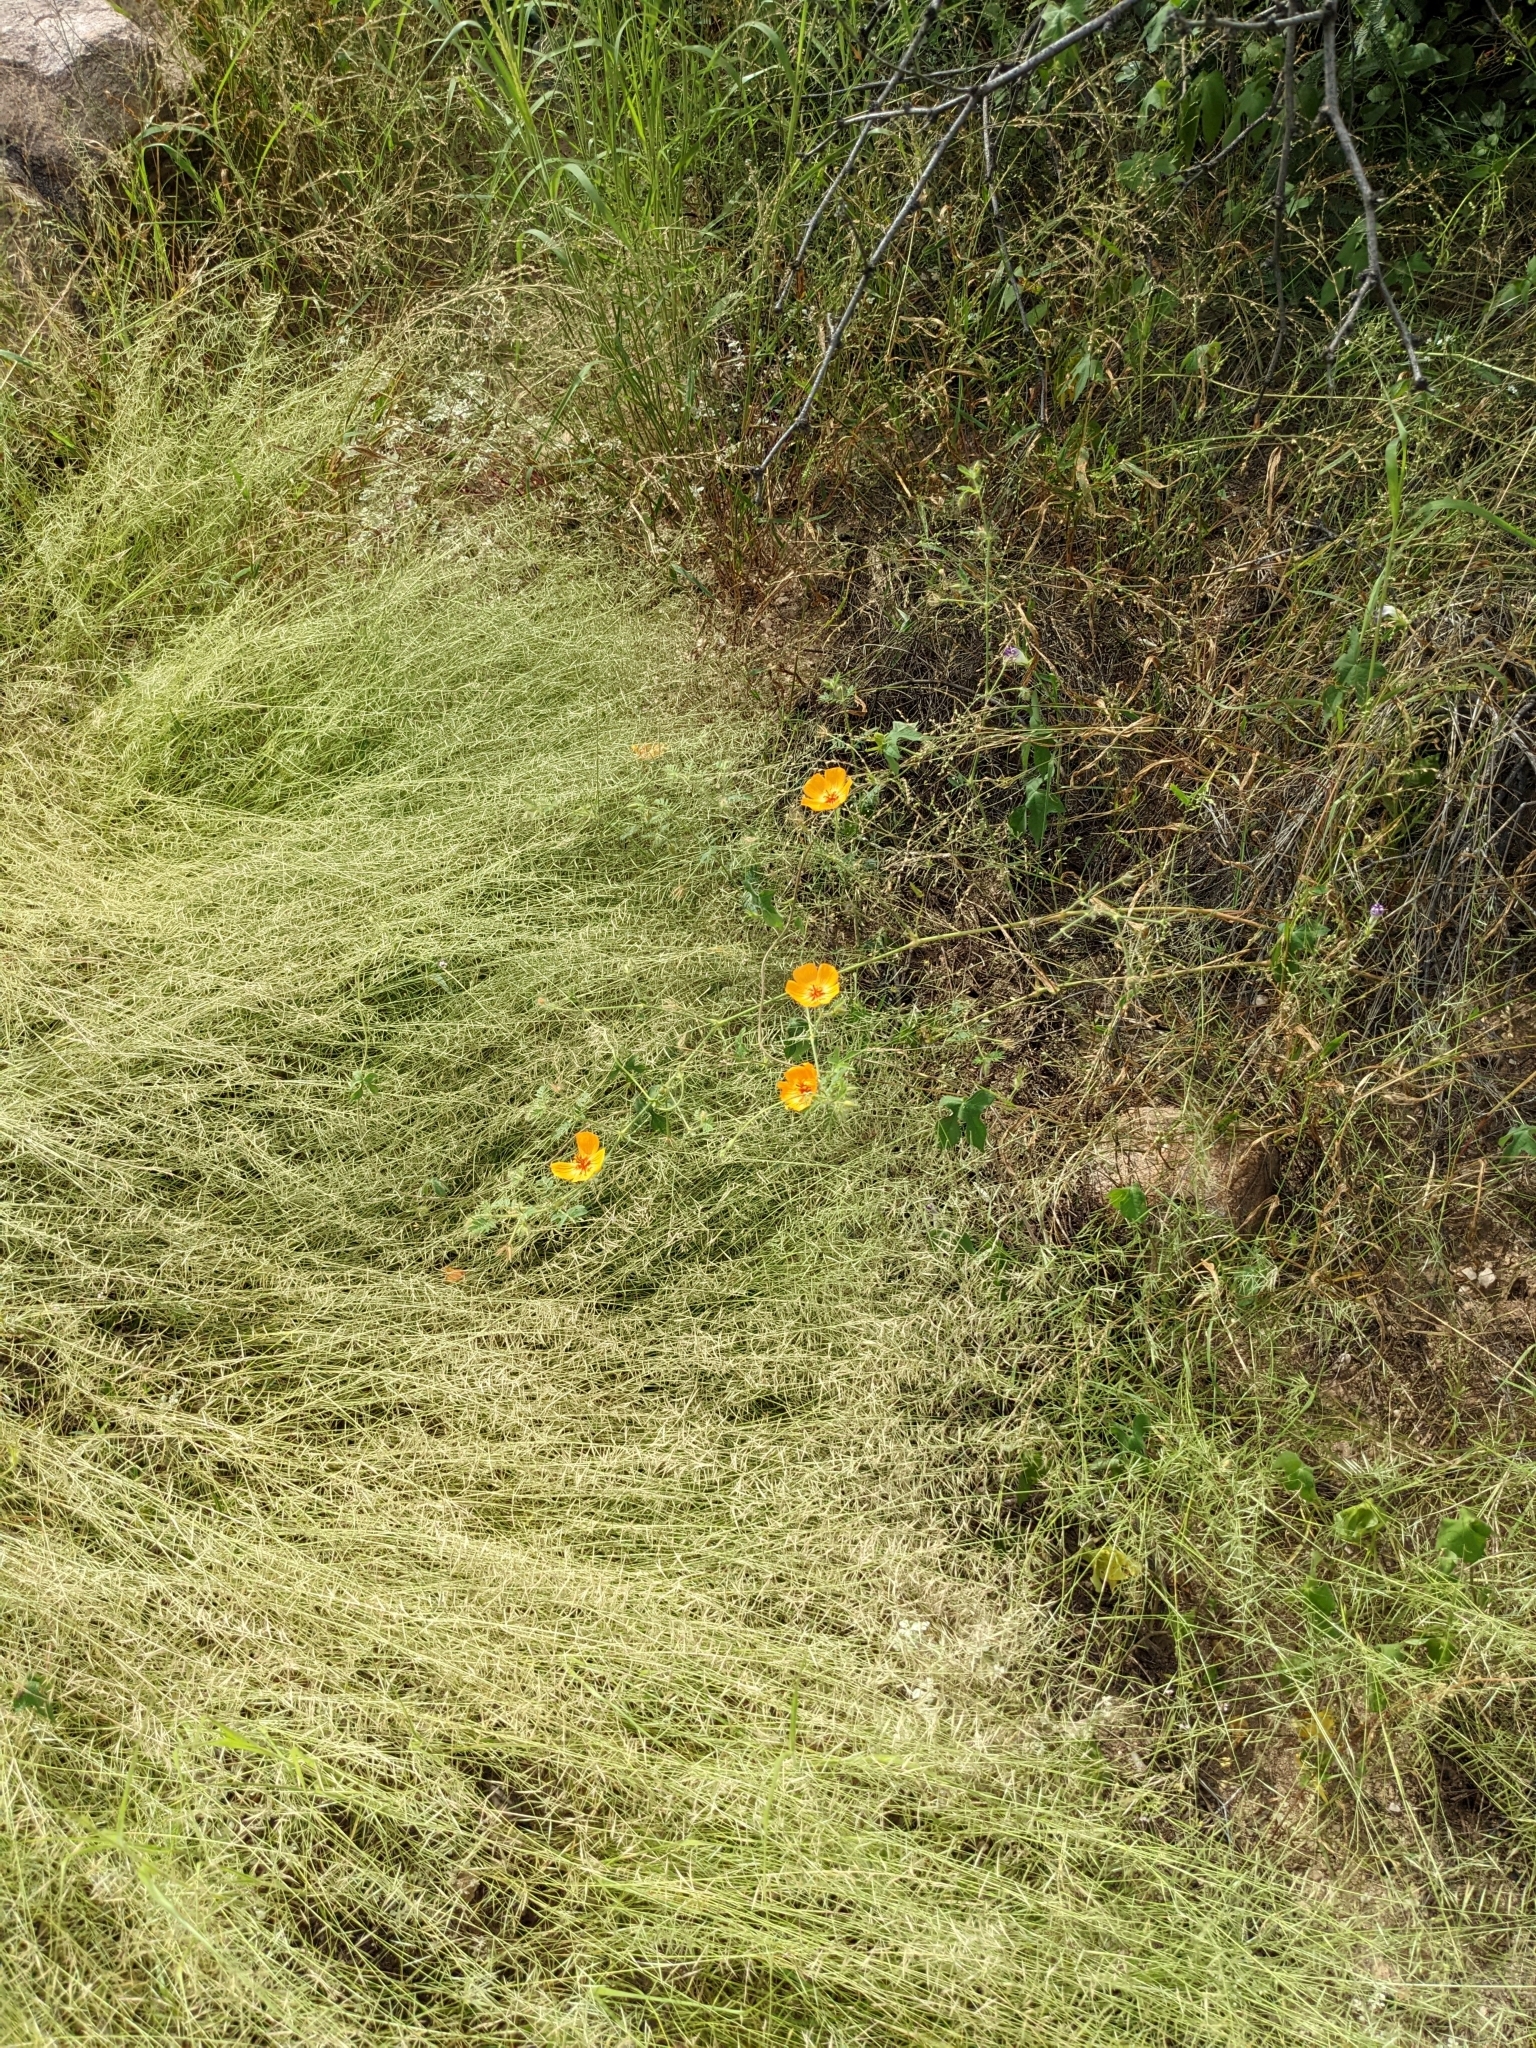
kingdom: Plantae
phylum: Tracheophyta
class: Magnoliopsida
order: Zygophyllales
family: Zygophyllaceae
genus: Kallstroemia
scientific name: Kallstroemia grandiflora
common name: Arizona-poppy
